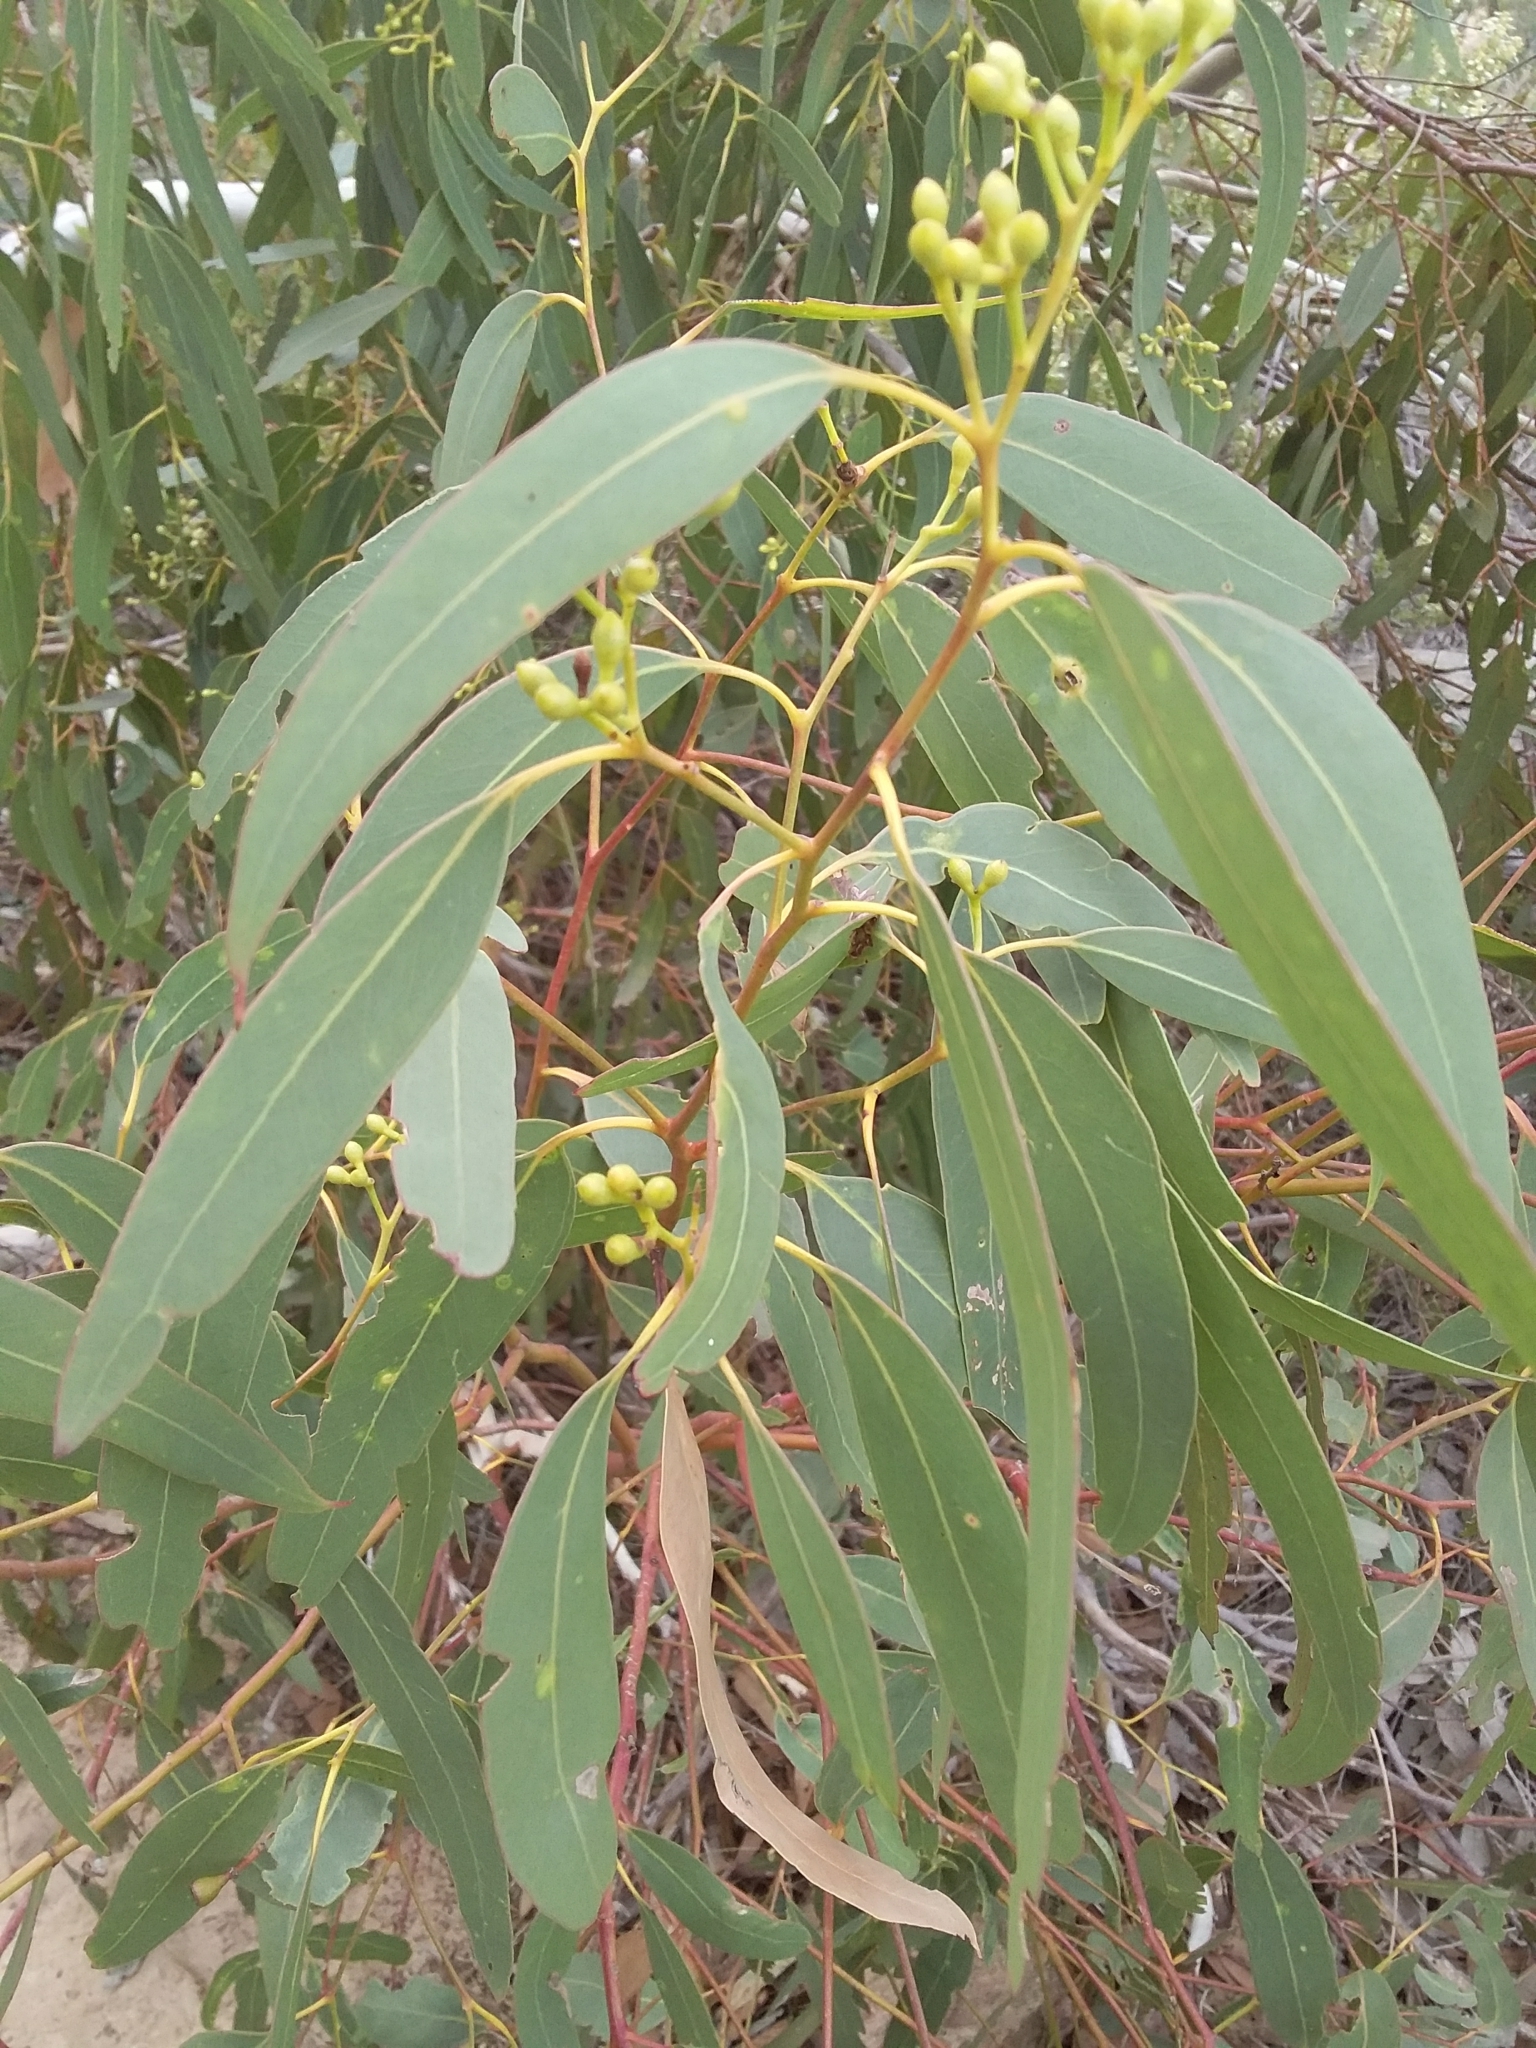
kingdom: Plantae
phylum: Tracheophyta
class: Magnoliopsida
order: Myrtales
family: Myrtaceae
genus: Eucalyptus
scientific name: Eucalyptus fasciculosa
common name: Hill gum
